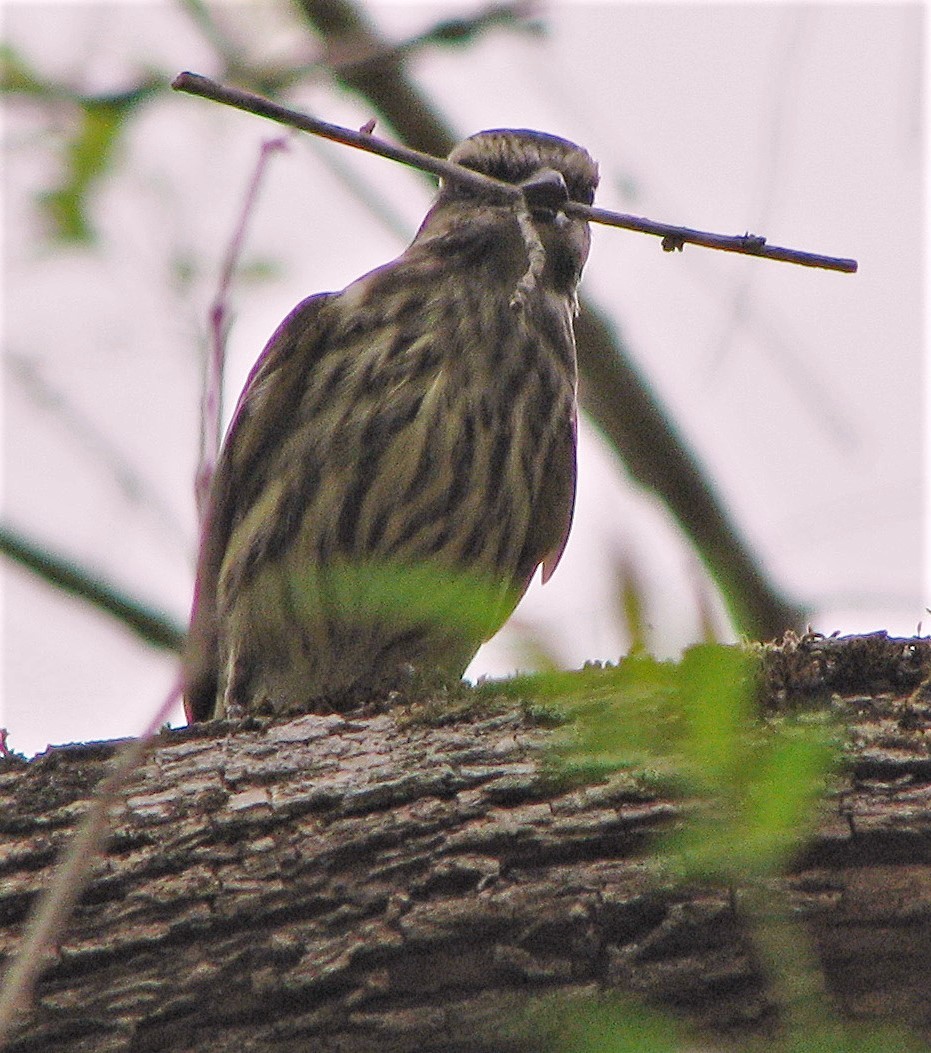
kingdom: Animalia
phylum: Chordata
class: Aves
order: Passeriformes
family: Tyrannidae
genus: Myiodynastes
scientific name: Myiodynastes maculatus
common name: Streaked flycatcher
